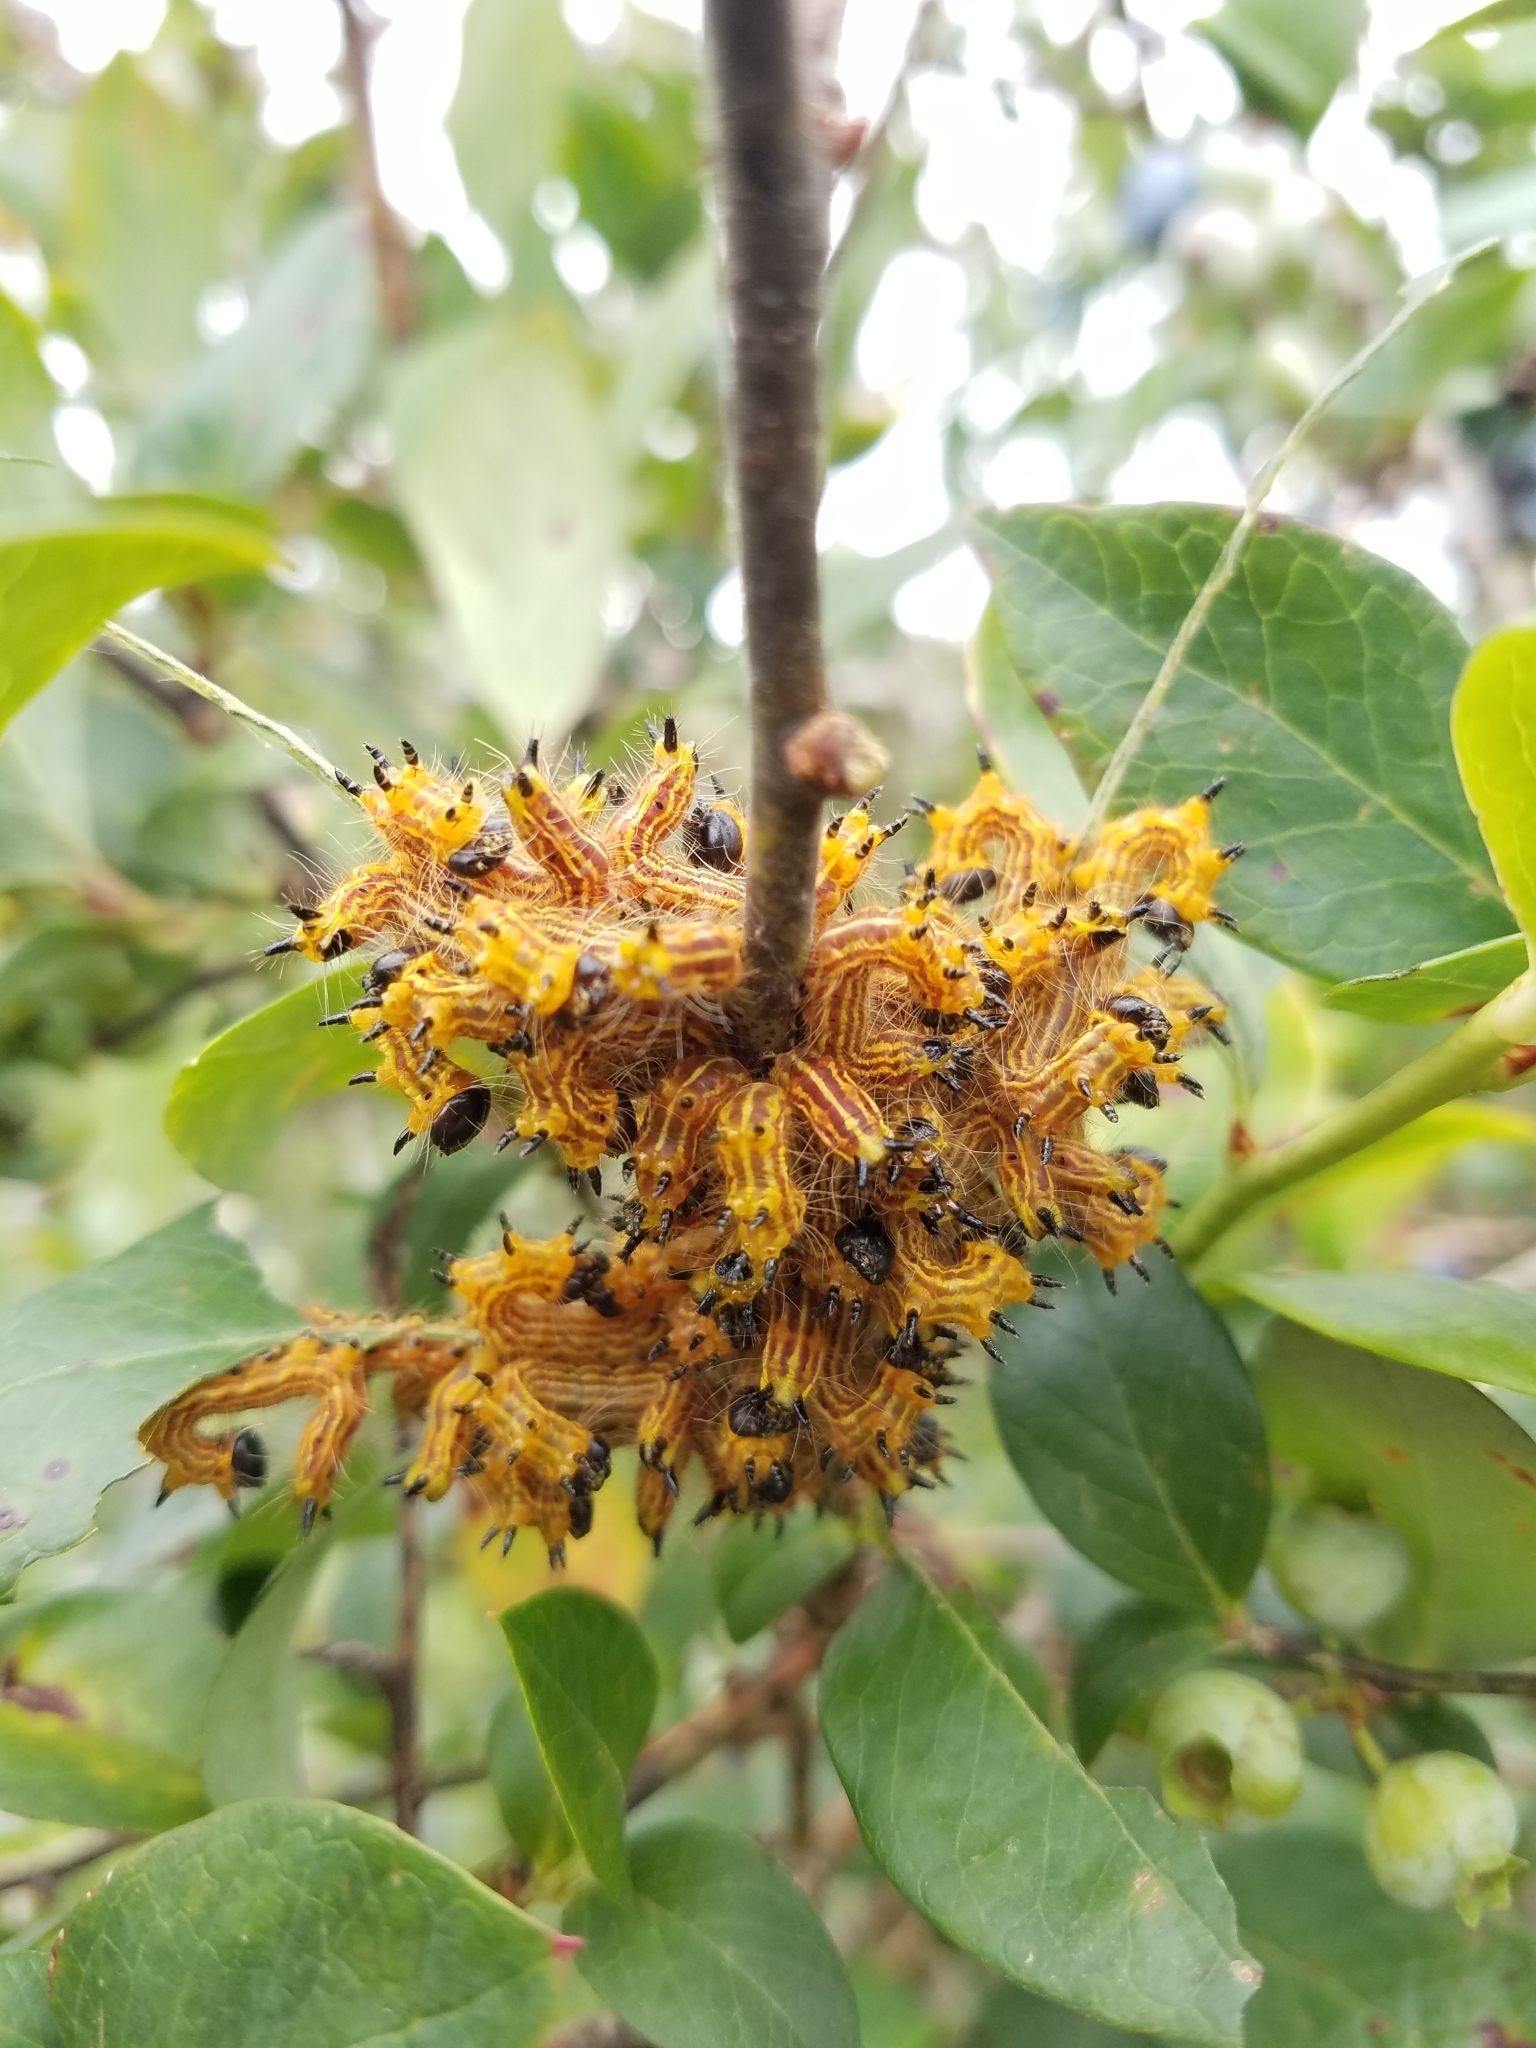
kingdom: Animalia
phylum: Arthropoda
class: Insecta
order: Lepidoptera
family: Notodontidae
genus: Datana
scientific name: Datana drexelii
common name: Drexel's datana
